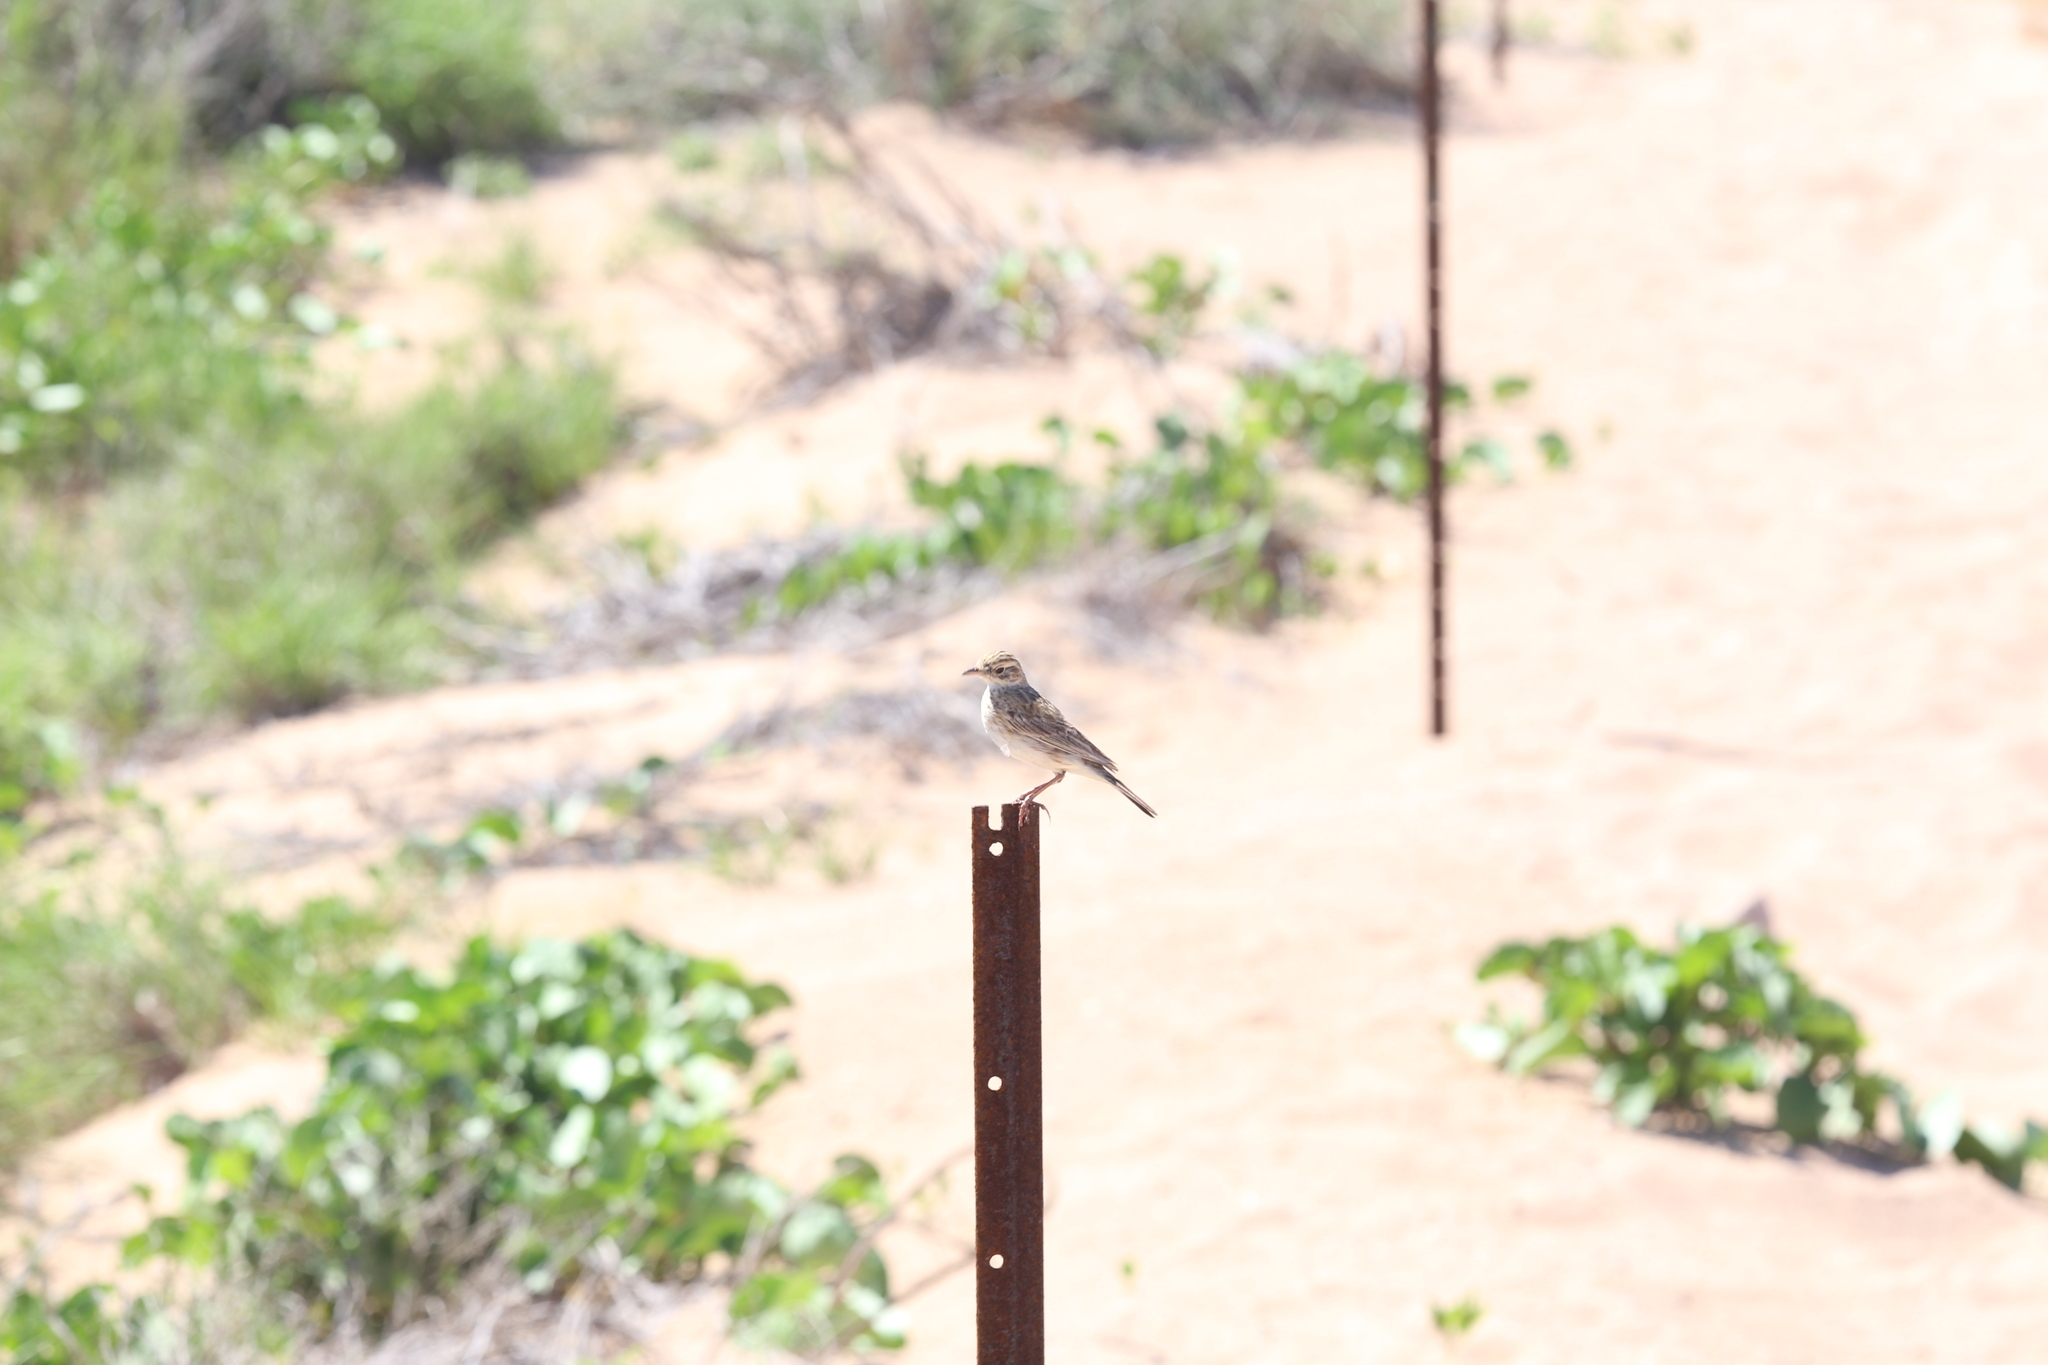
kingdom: Animalia
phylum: Chordata
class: Aves
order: Passeriformes
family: Motacillidae
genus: Anthus
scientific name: Anthus australis
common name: Australian pipit
